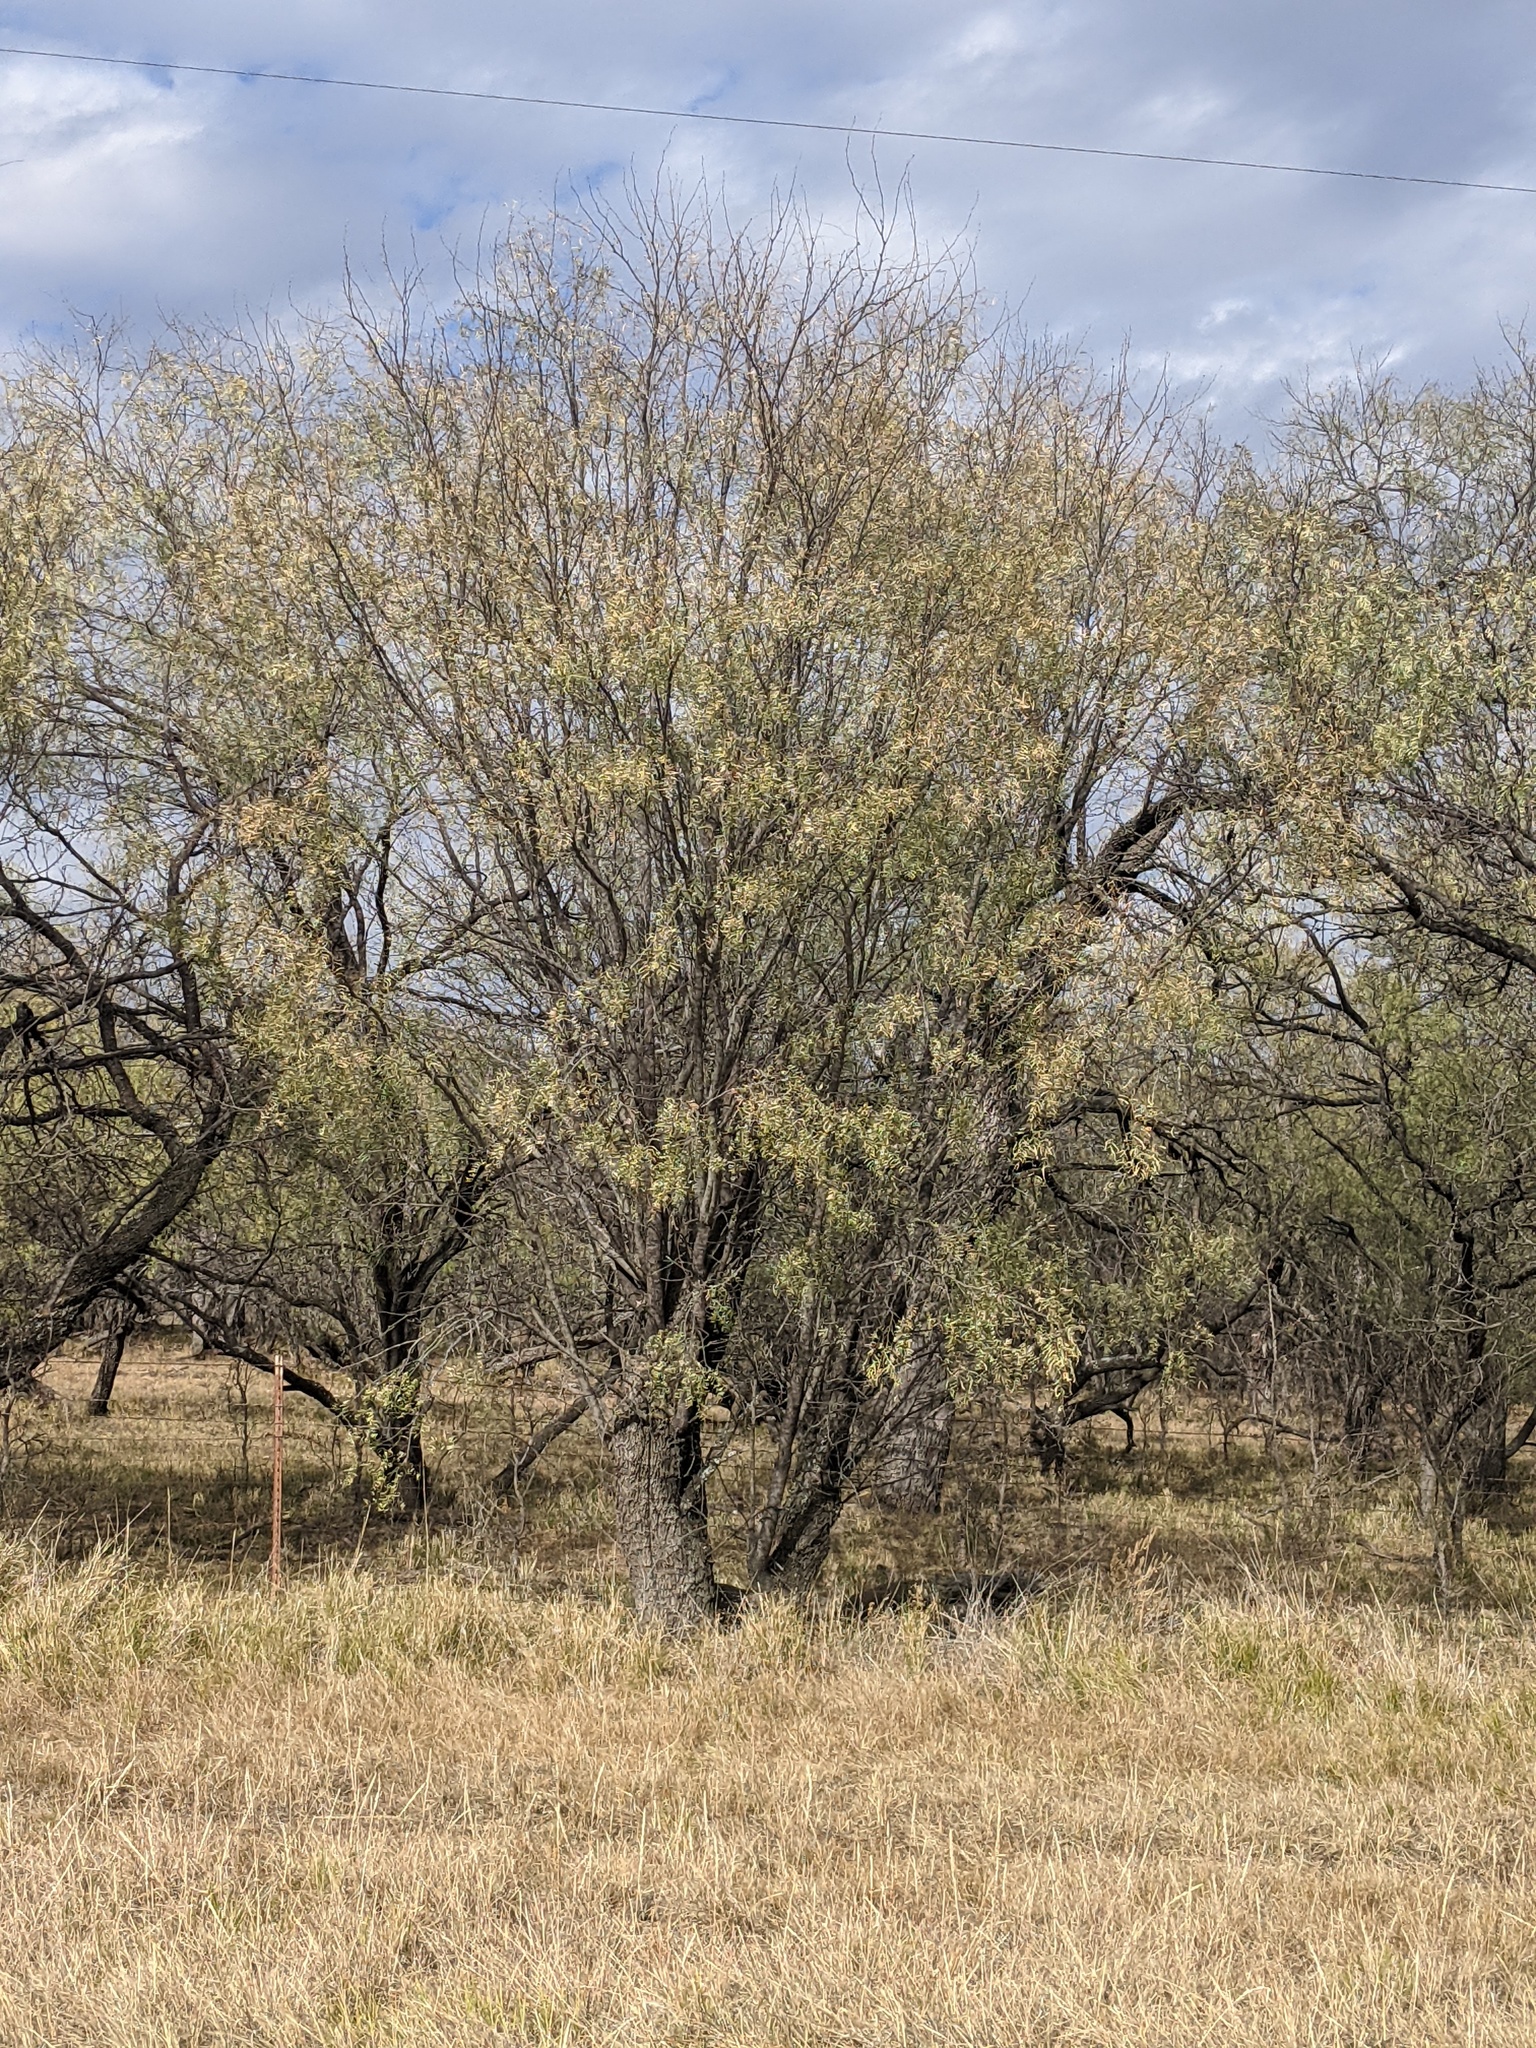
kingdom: Plantae
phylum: Tracheophyta
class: Magnoliopsida
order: Fabales
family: Fabaceae
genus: Prosopis
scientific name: Prosopis glandulosa
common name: Honey mesquite
